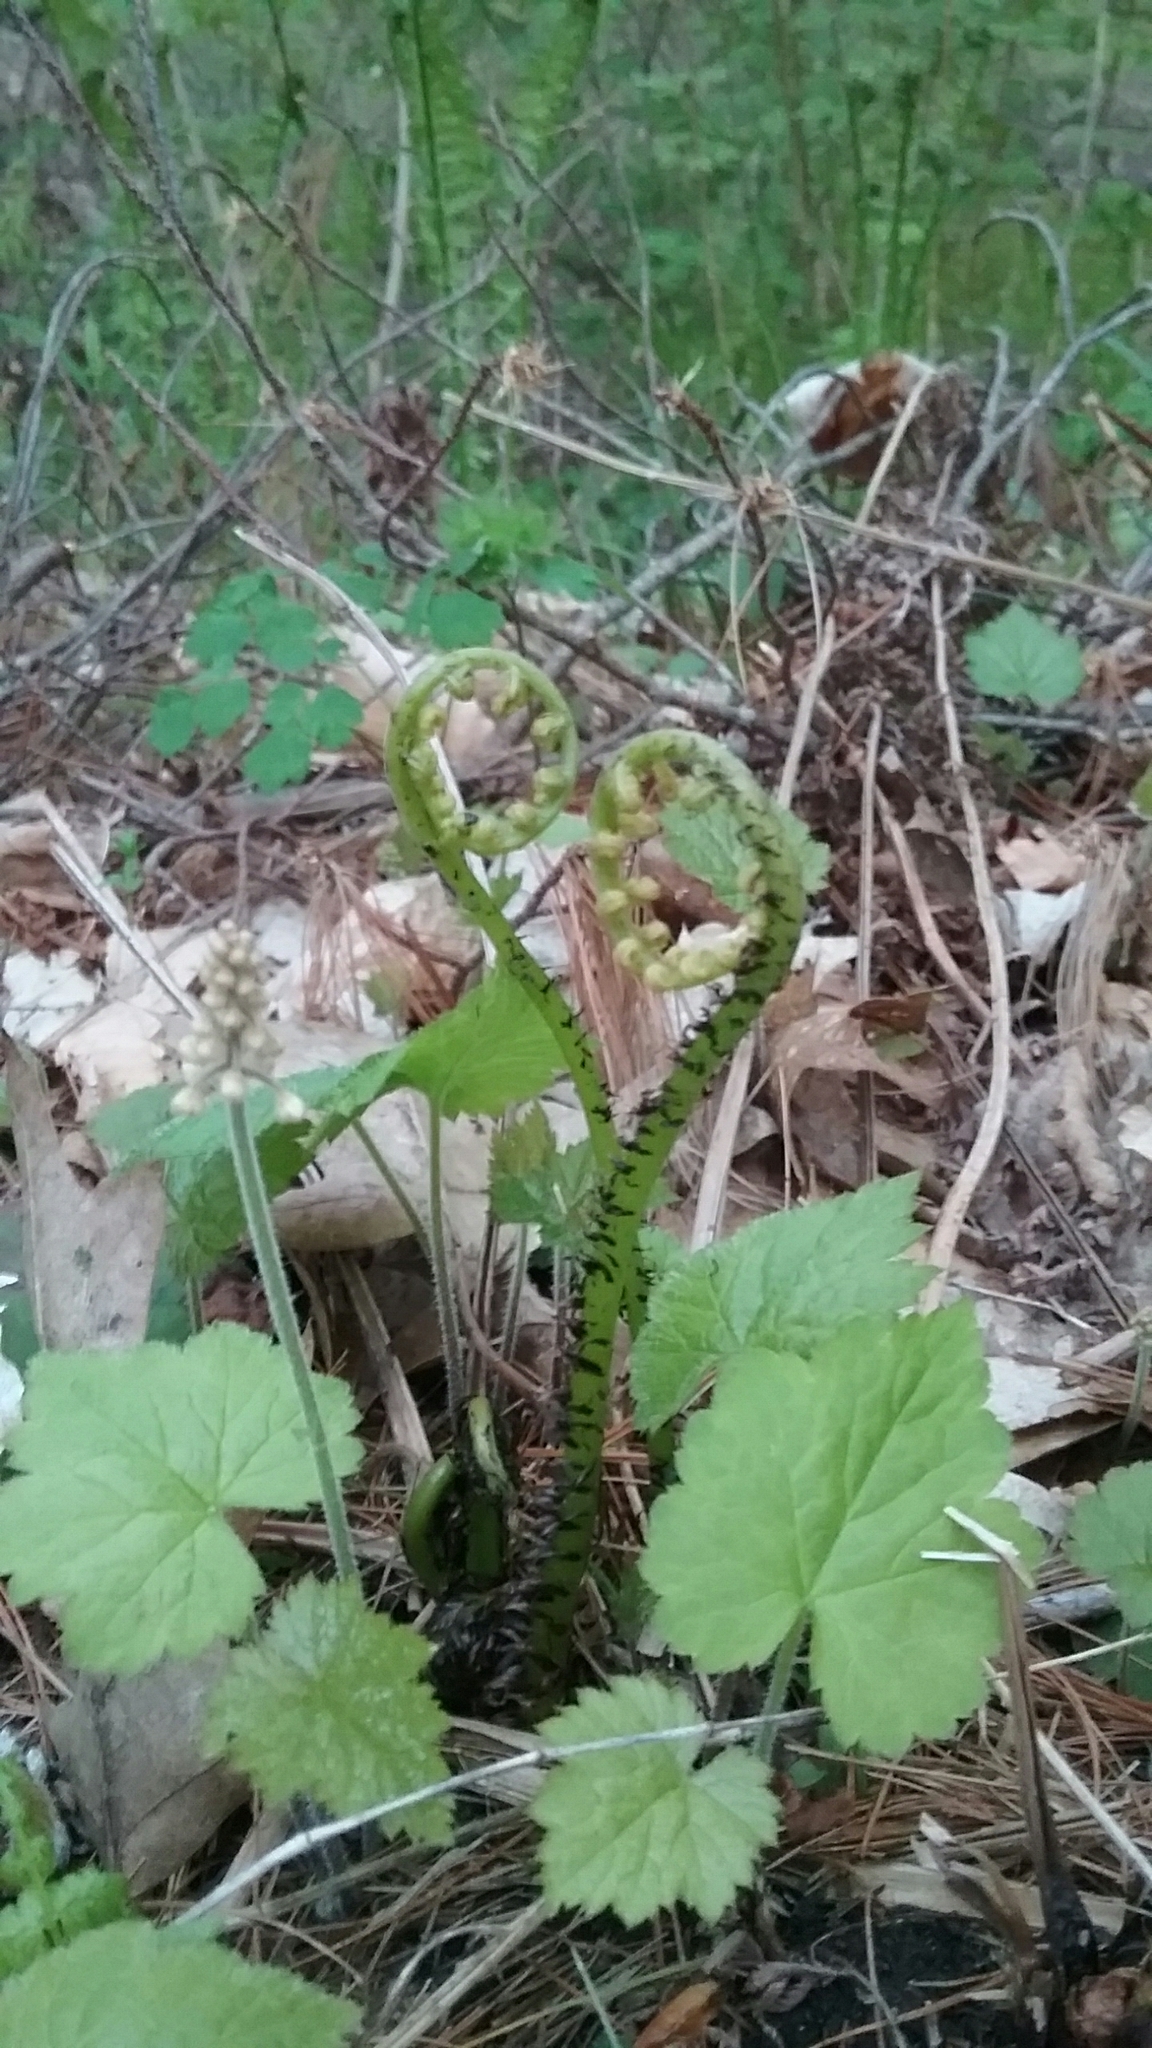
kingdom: Plantae
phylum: Tracheophyta
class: Polypodiopsida
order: Polypodiales
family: Athyriaceae
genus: Athyrium
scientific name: Athyrium angustum
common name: Northern lady fern
